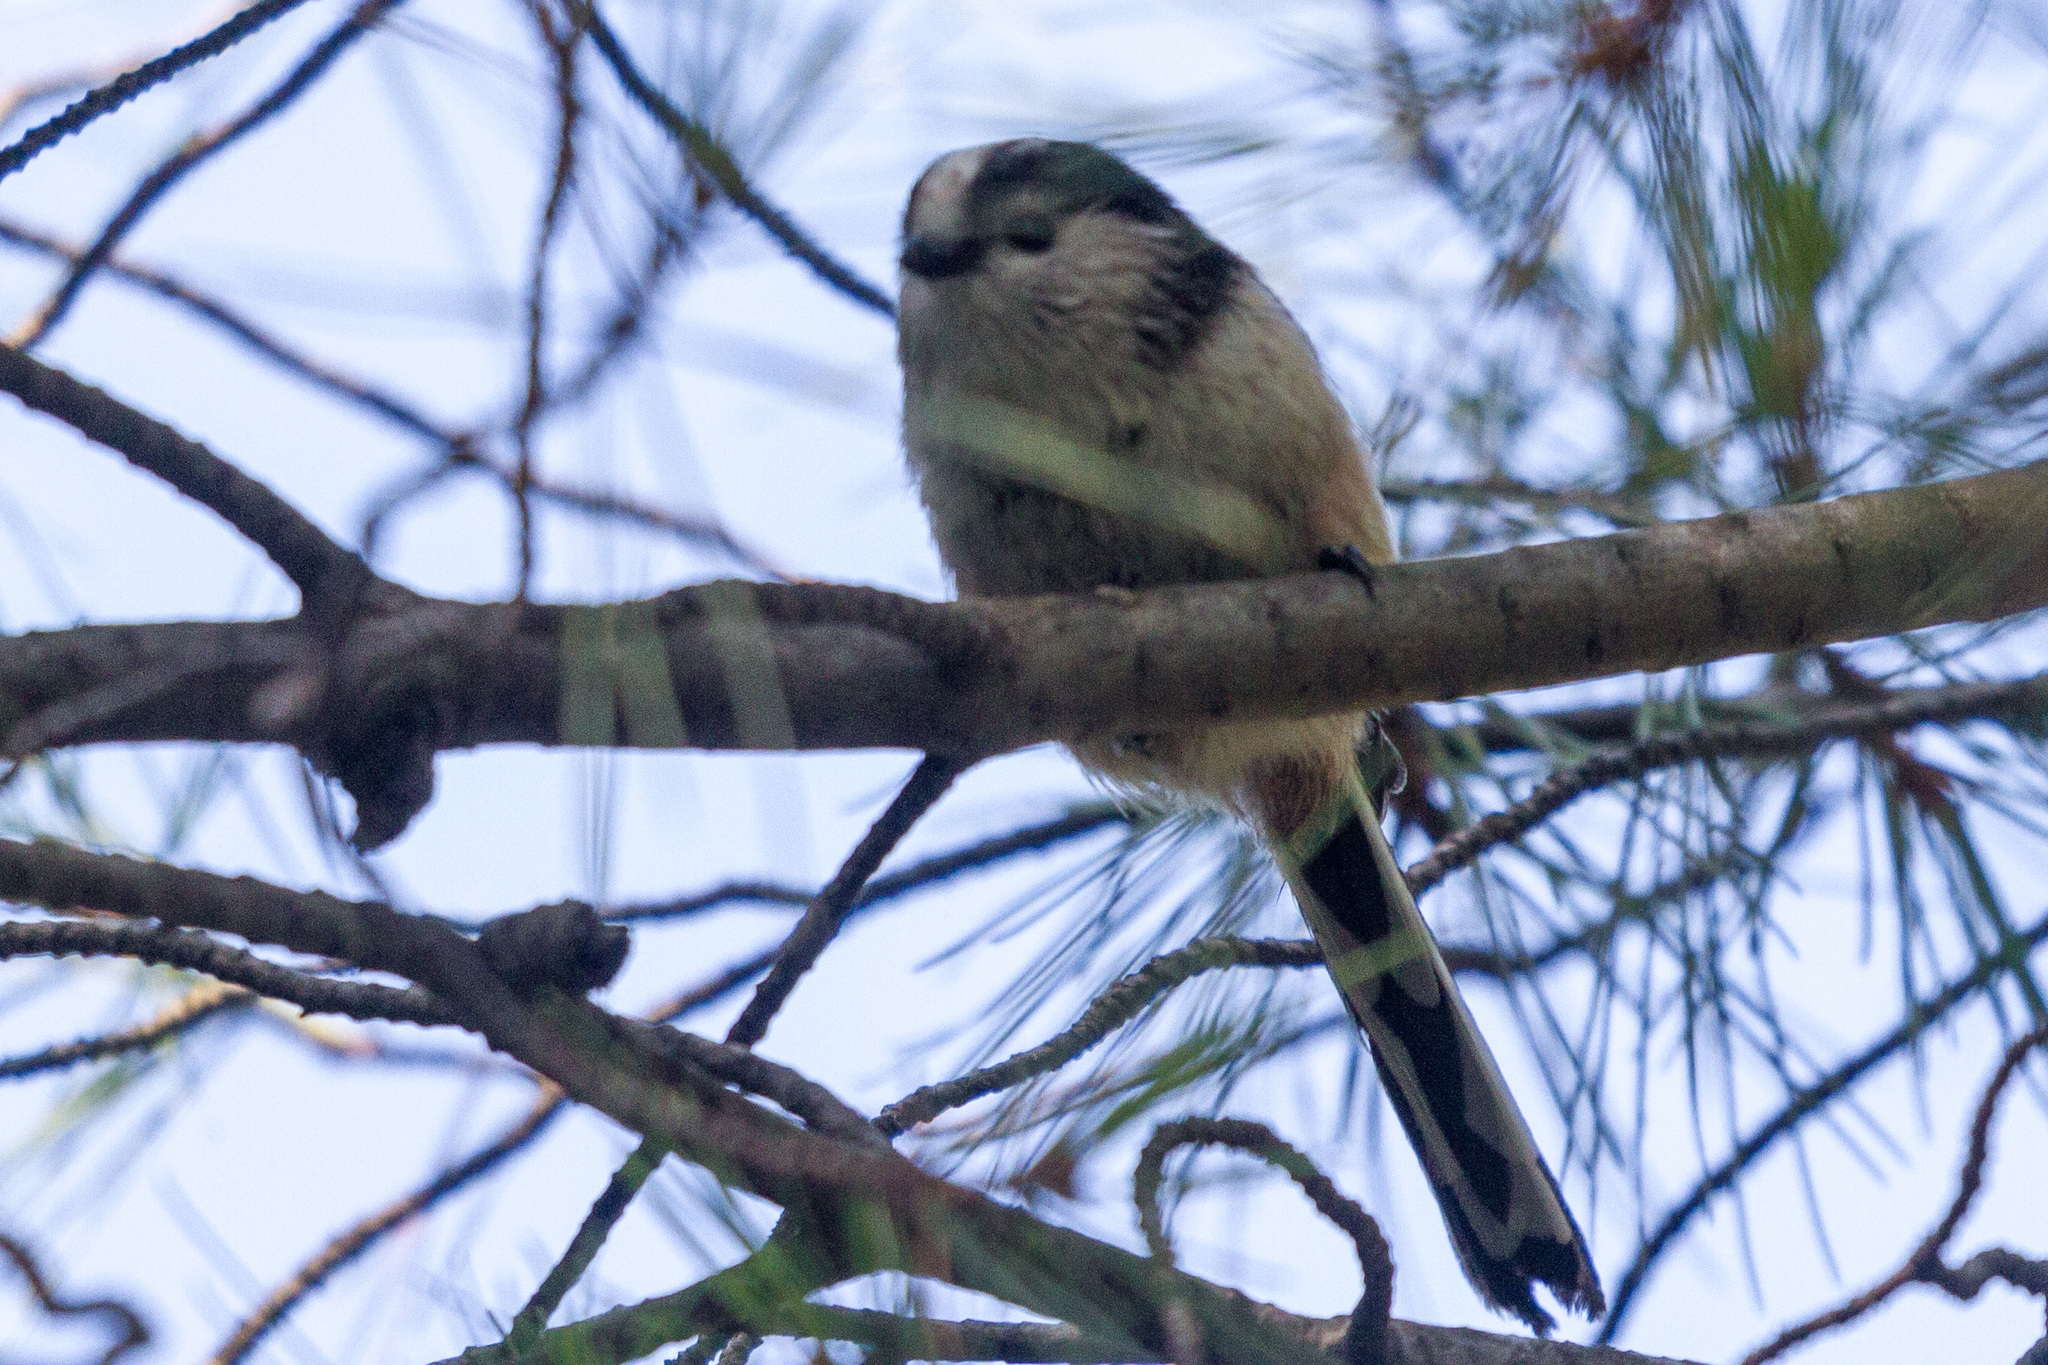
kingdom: Animalia
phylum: Chordata
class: Aves
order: Passeriformes
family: Aegithalidae
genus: Aegithalos
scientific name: Aegithalos caudatus
